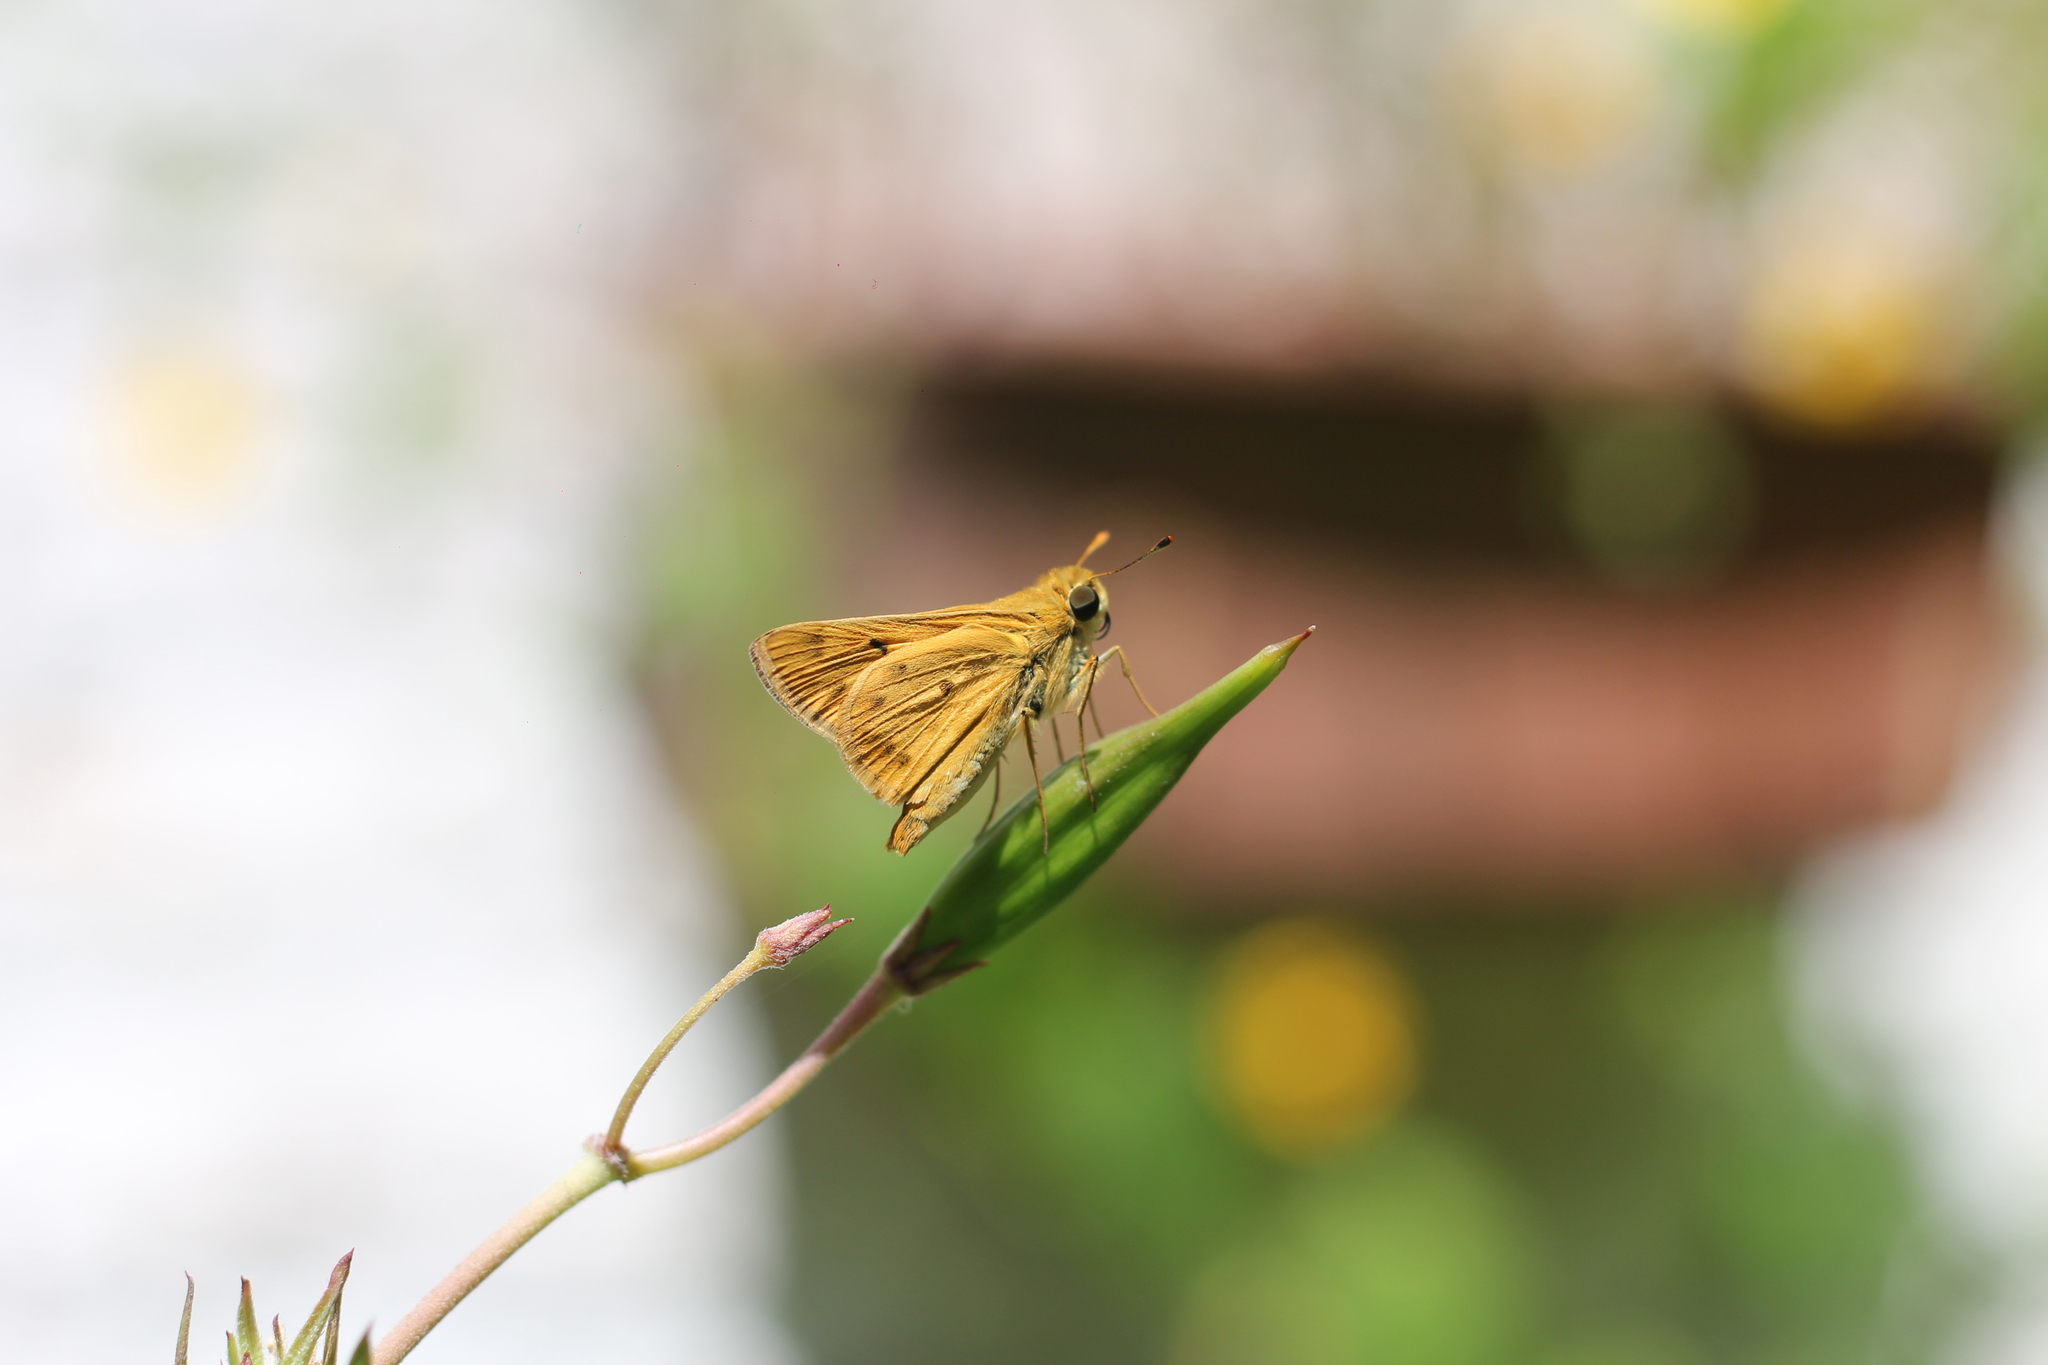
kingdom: Animalia
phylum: Arthropoda
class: Insecta
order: Lepidoptera
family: Hesperiidae
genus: Hylephila
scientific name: Hylephila phyleus
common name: Fiery skipper
